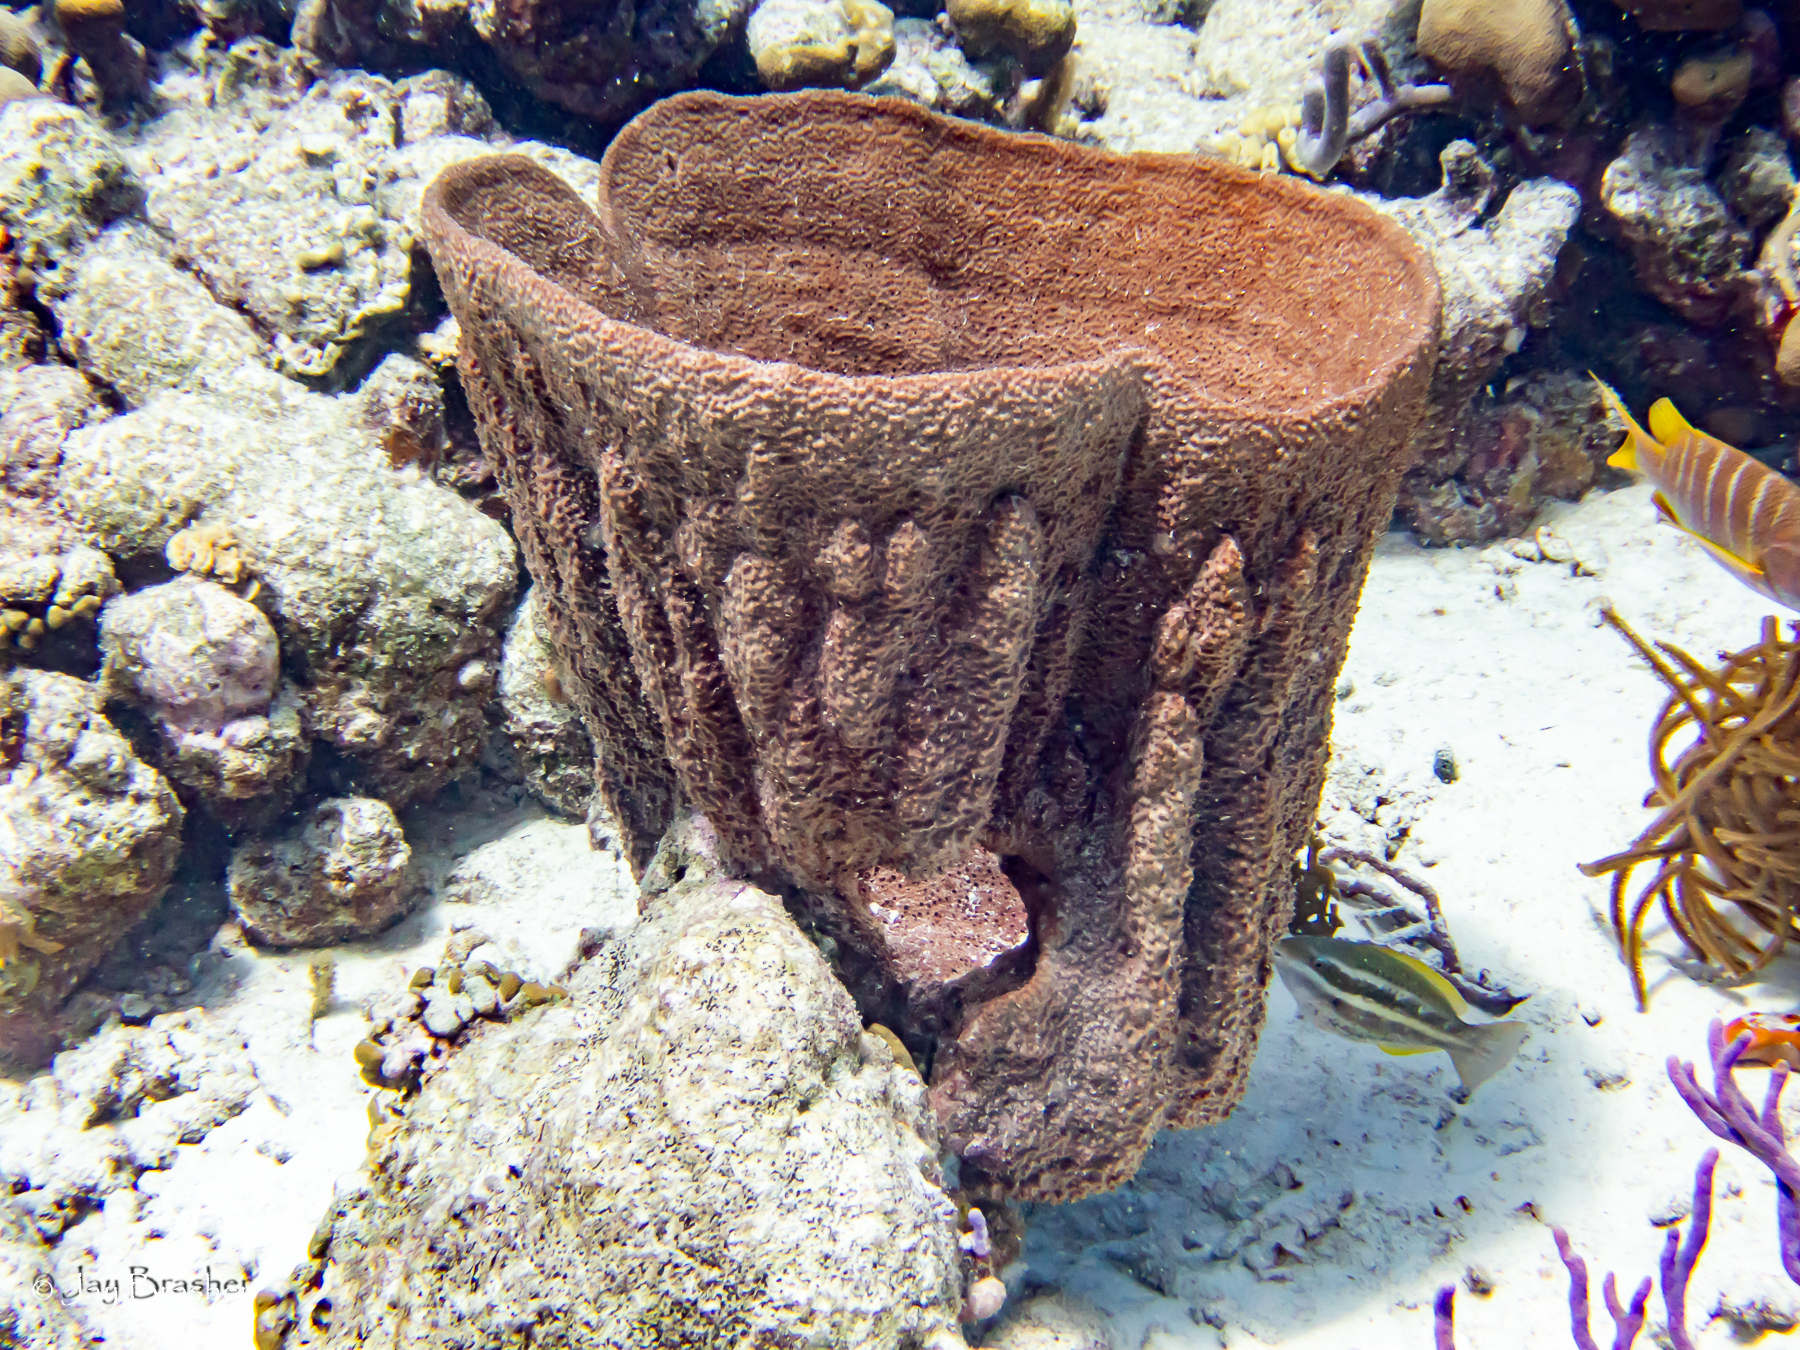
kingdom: Animalia
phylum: Porifera
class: Demospongiae
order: Dictyoceratida
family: Irciniidae
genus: Ircinia
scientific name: Ircinia campana
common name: Vase sponge
